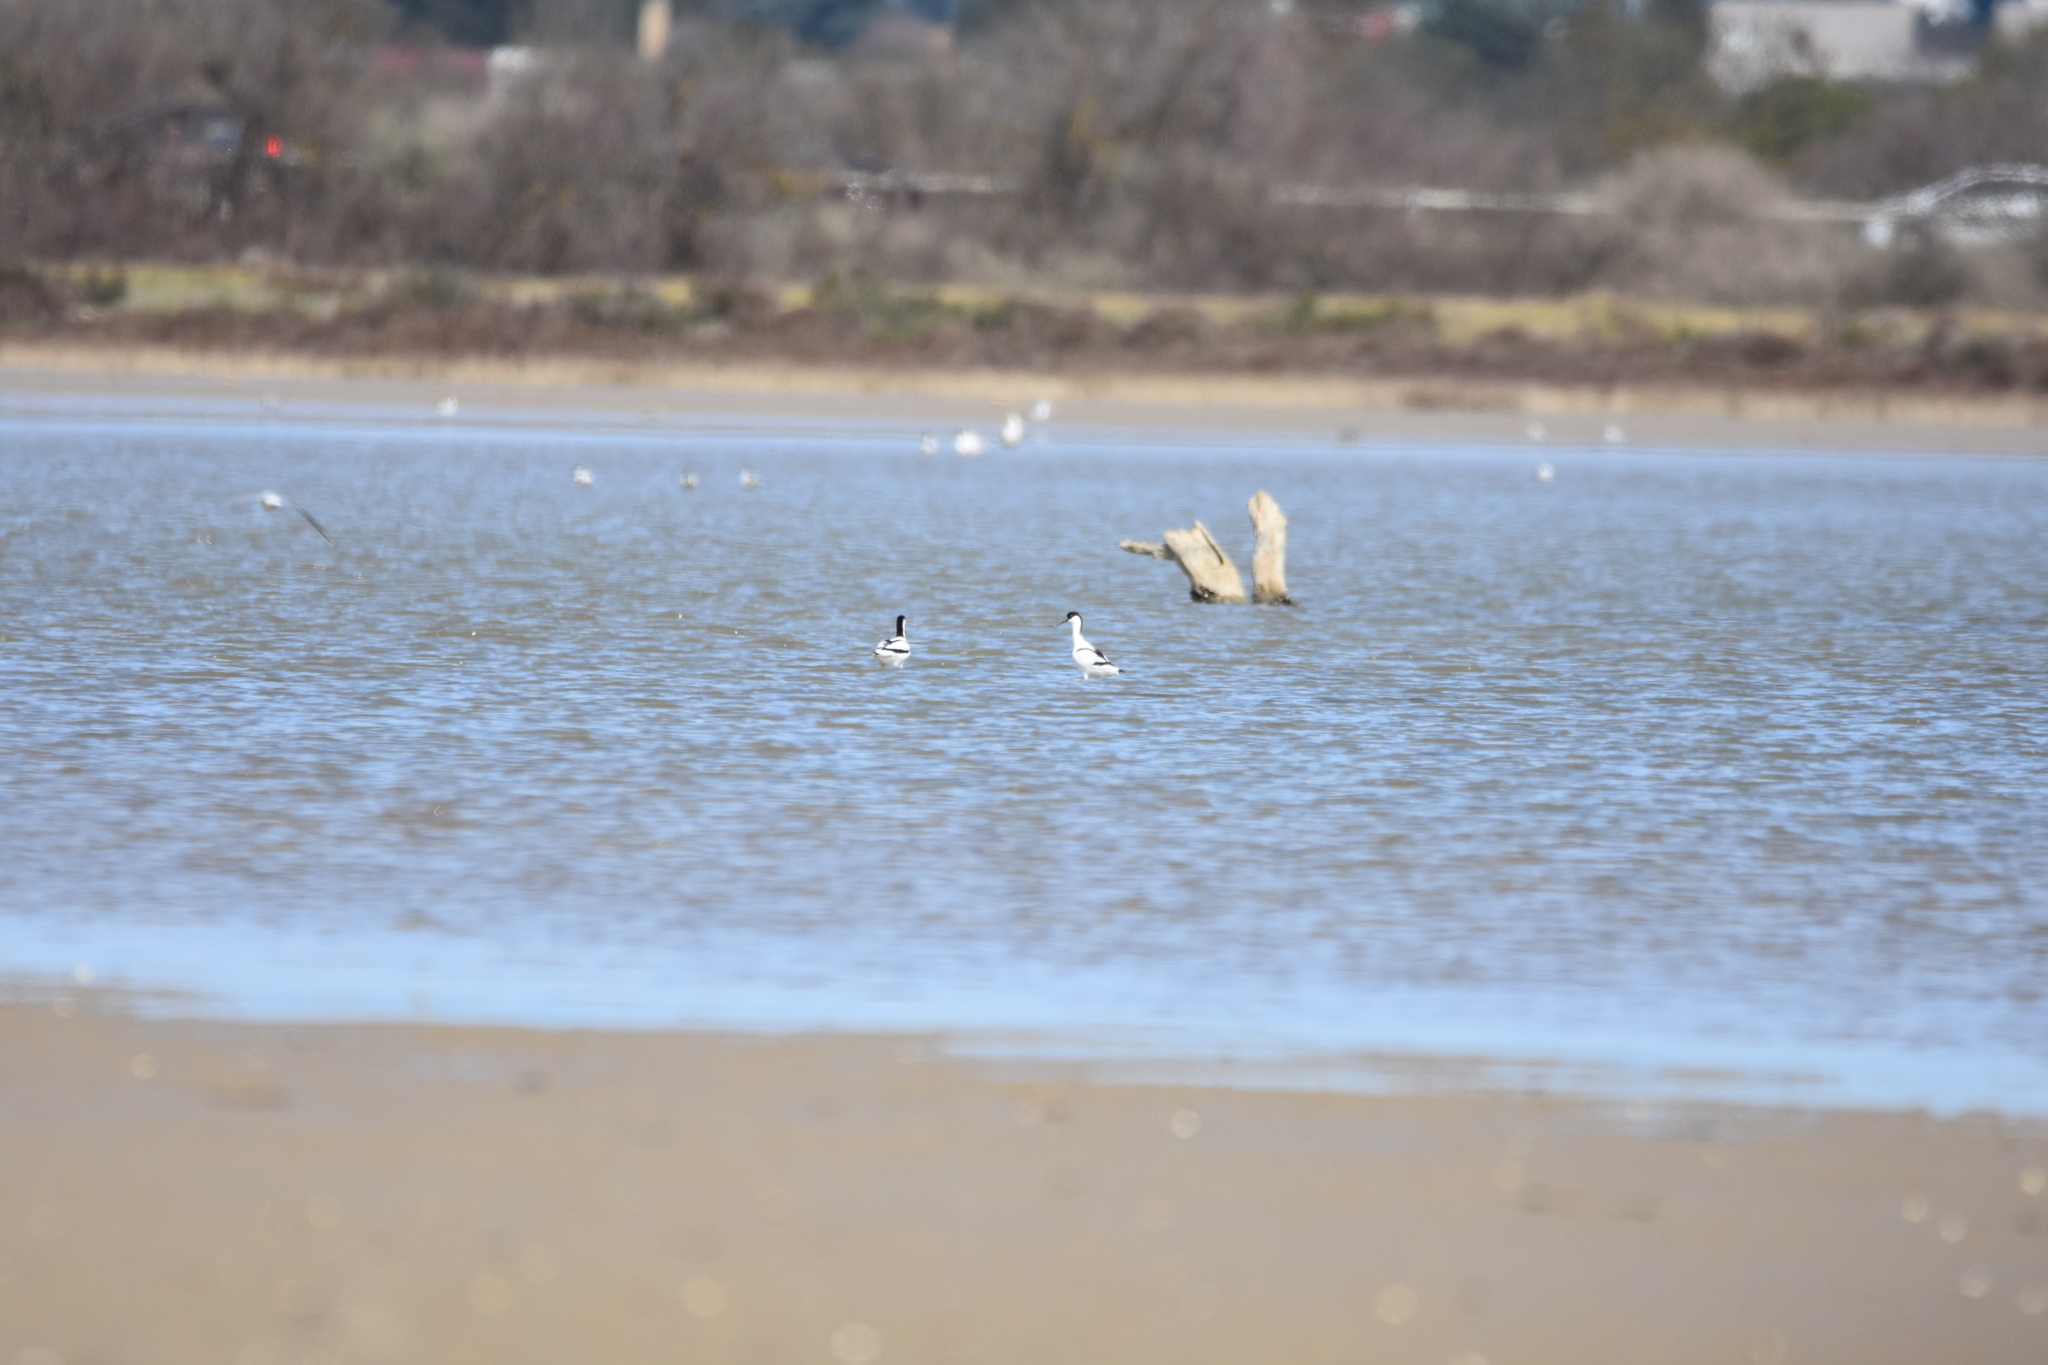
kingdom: Animalia
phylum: Chordata
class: Aves
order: Charadriiformes
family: Recurvirostridae
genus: Recurvirostra
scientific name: Recurvirostra avosetta
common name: Pied avocet
